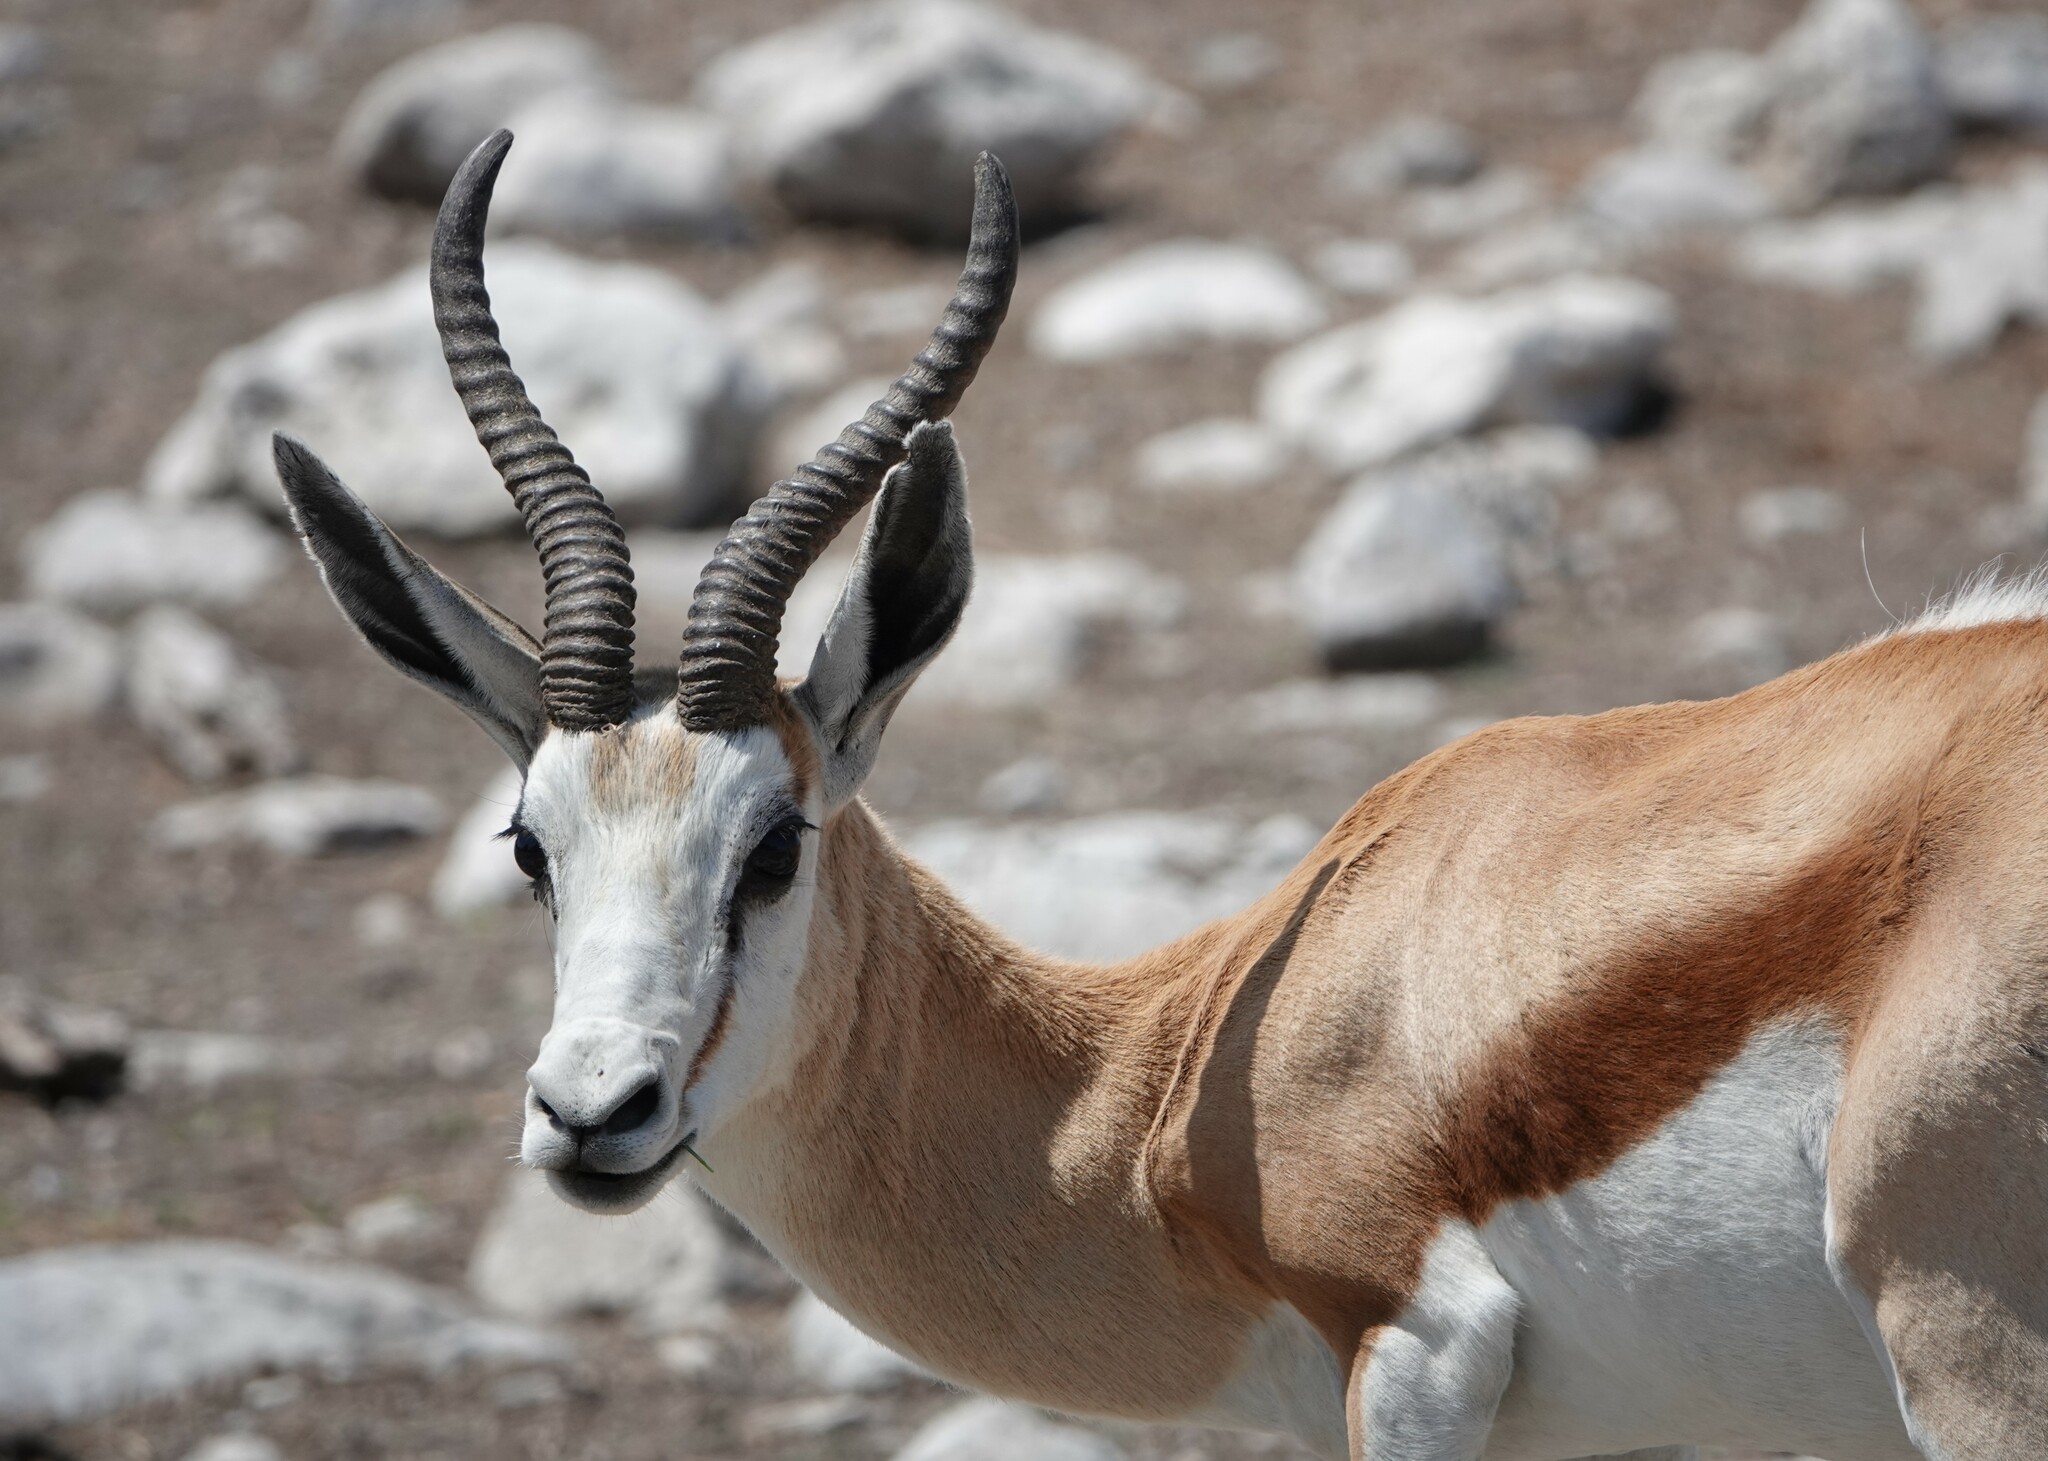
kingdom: Animalia
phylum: Chordata
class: Mammalia
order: Artiodactyla
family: Bovidae
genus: Antidorcas
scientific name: Antidorcas marsupialis
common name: Springbok
